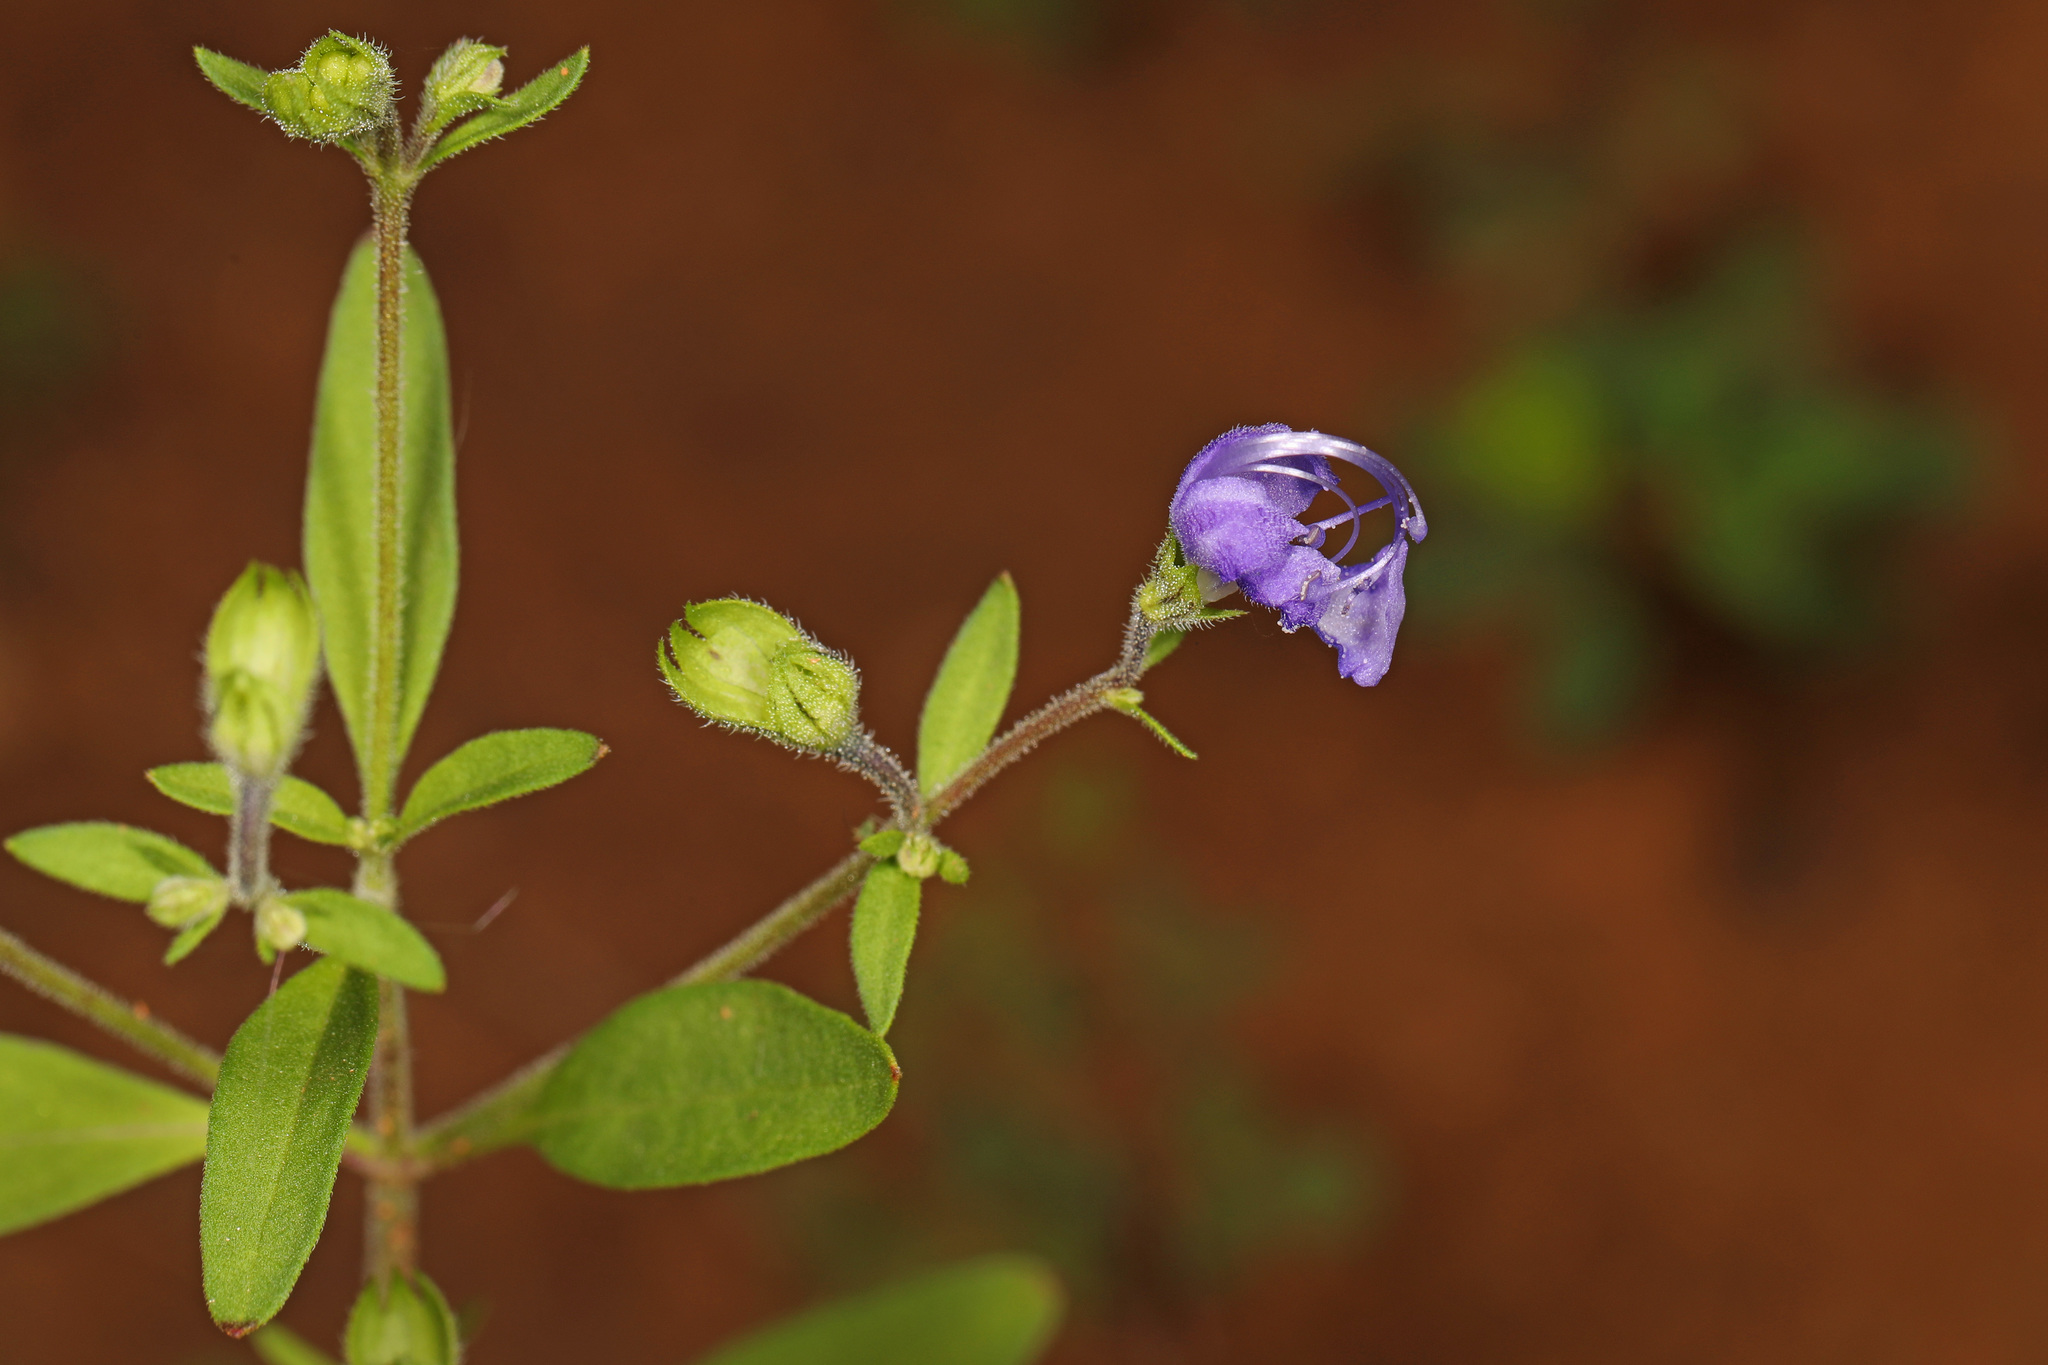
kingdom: Plantae
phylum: Tracheophyta
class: Magnoliopsida
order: Lamiales
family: Lamiaceae
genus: Trichostema
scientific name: Trichostema dichotomum
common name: Bastard pennyroyal
